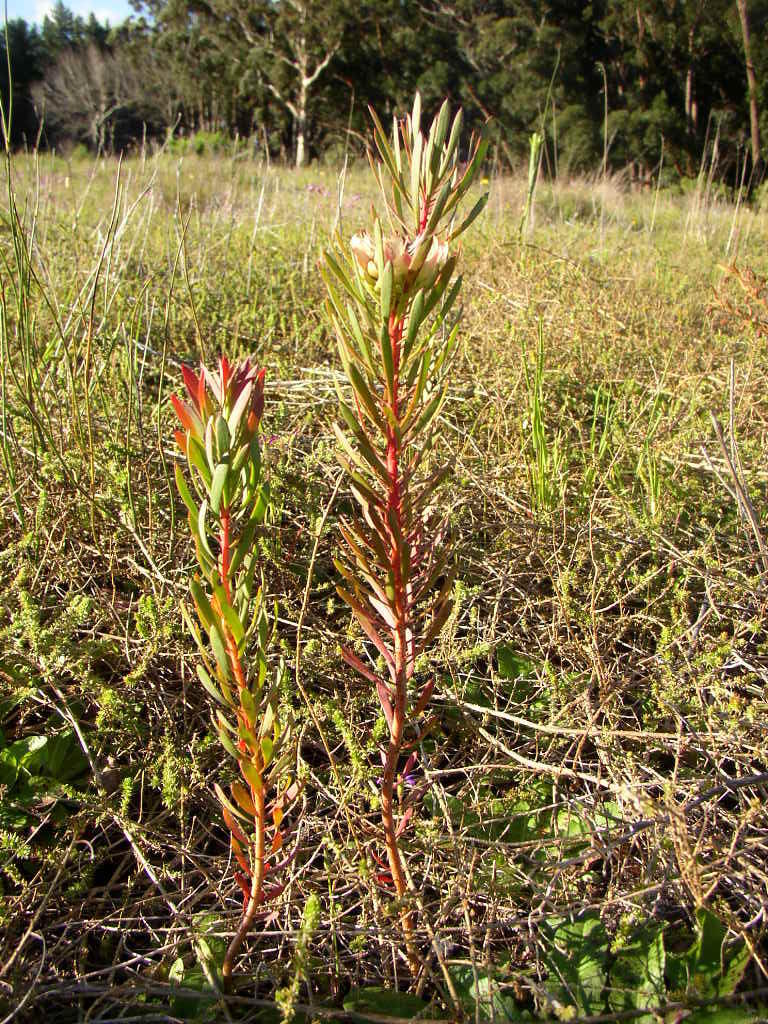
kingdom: Plantae
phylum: Tracheophyta
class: Magnoliopsida
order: Proteales
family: Proteaceae
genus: Protea
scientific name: Protea scolymocephala
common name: Thistle sugarbush
